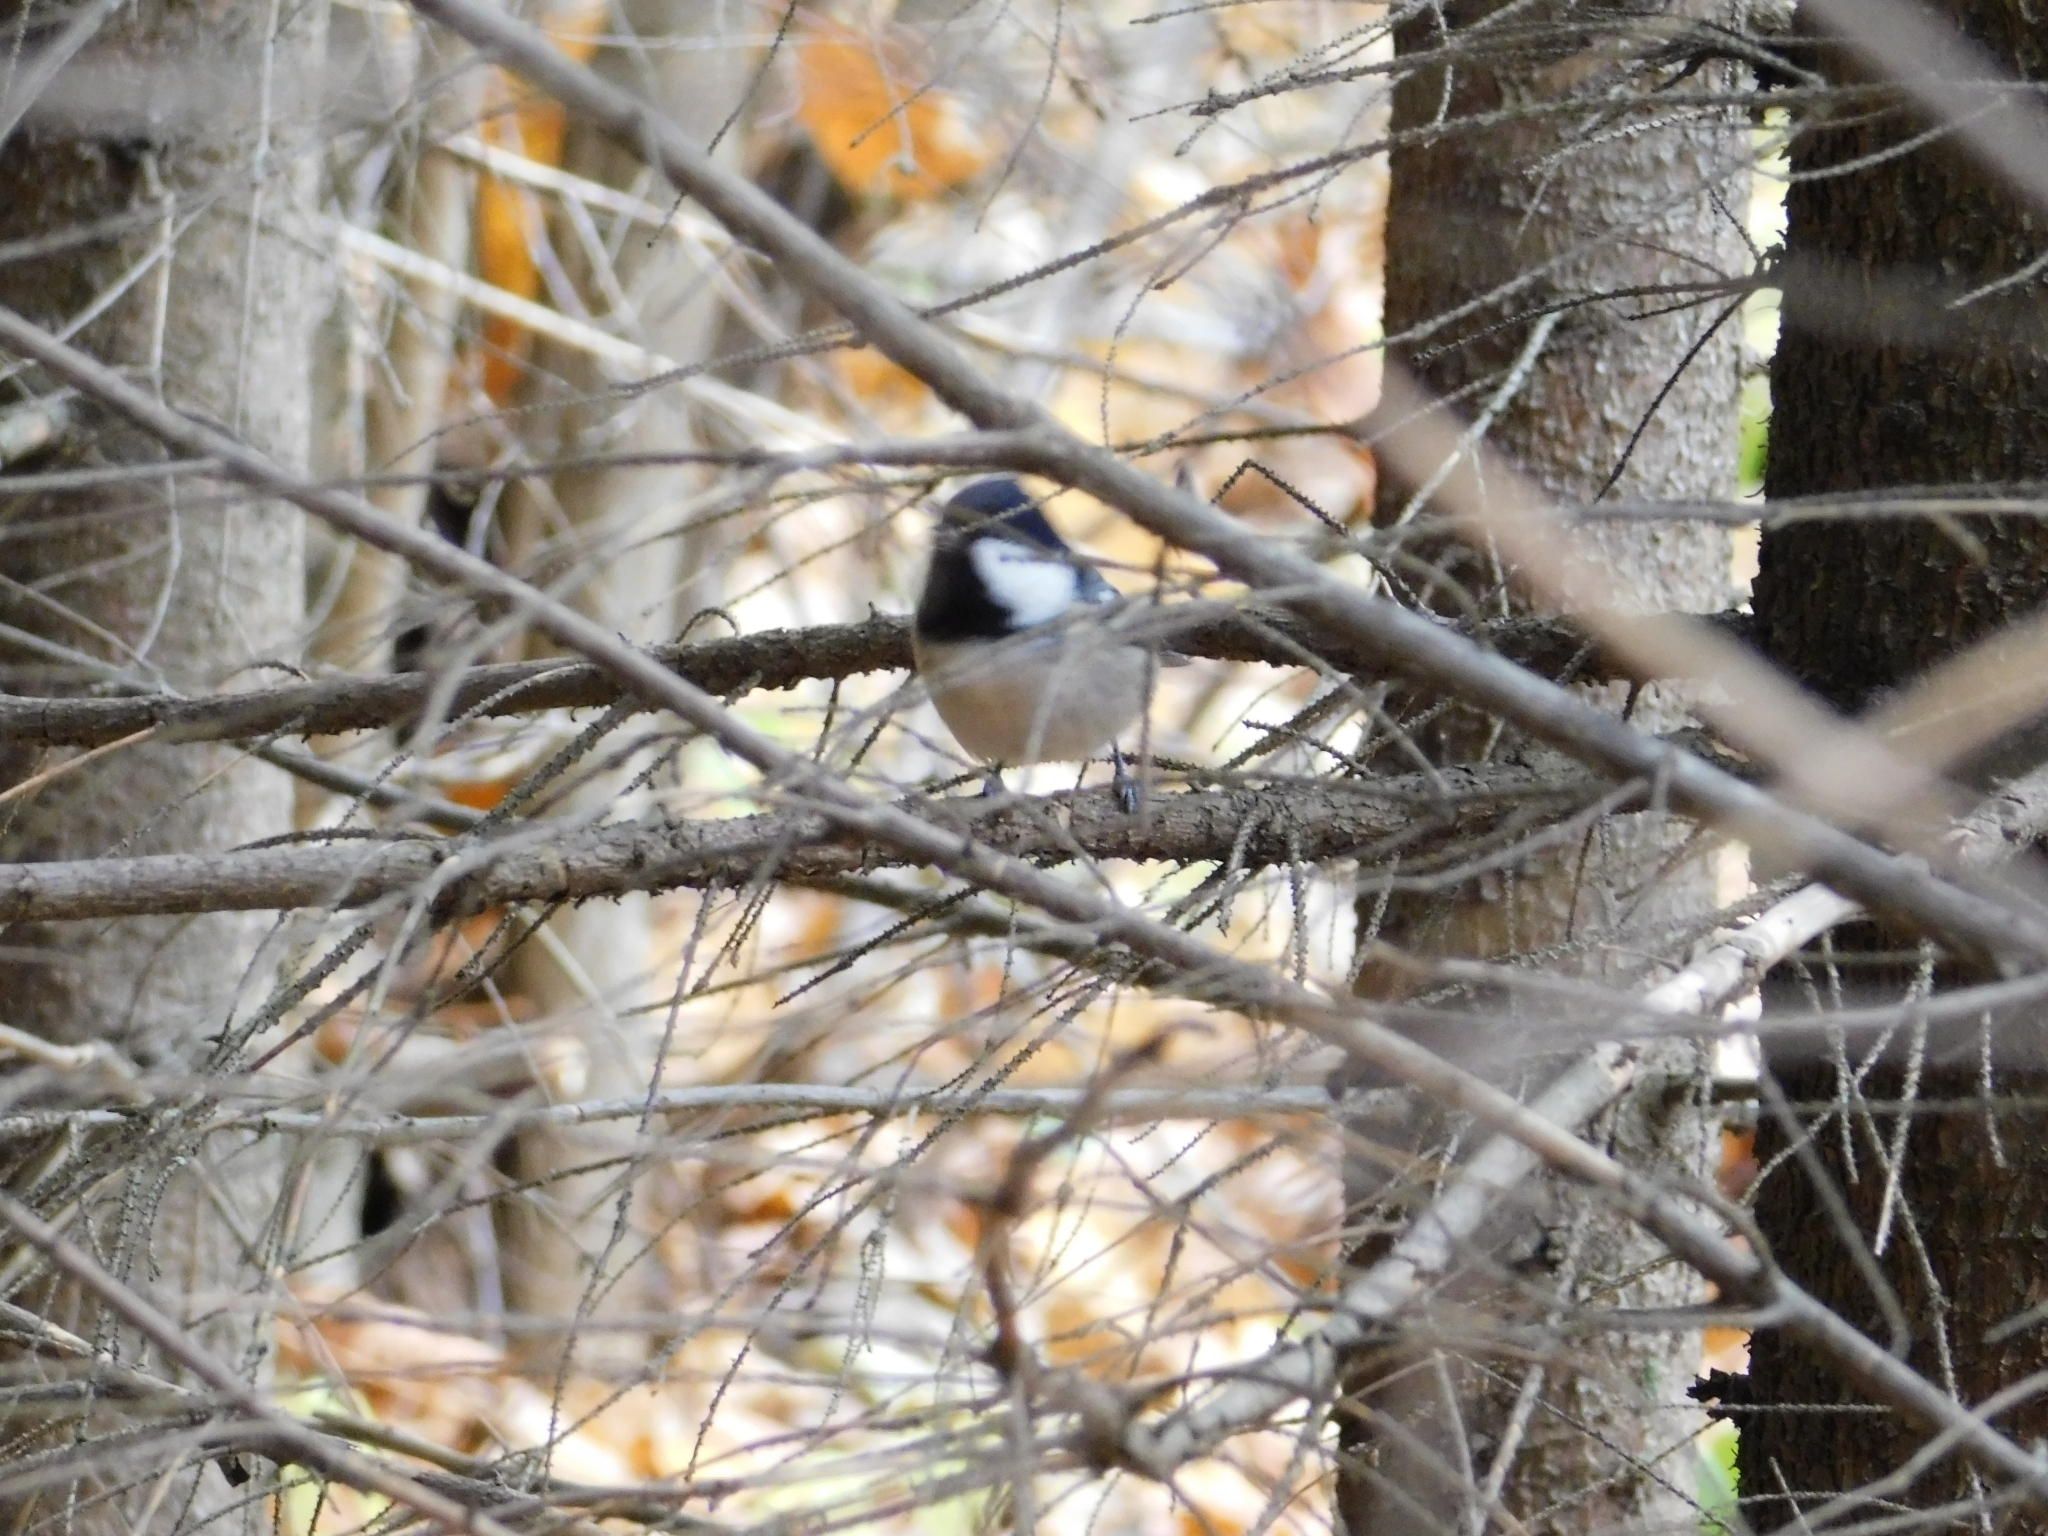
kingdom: Animalia
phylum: Chordata
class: Aves
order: Passeriformes
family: Paridae
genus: Periparus
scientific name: Periparus ater
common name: Coal tit
